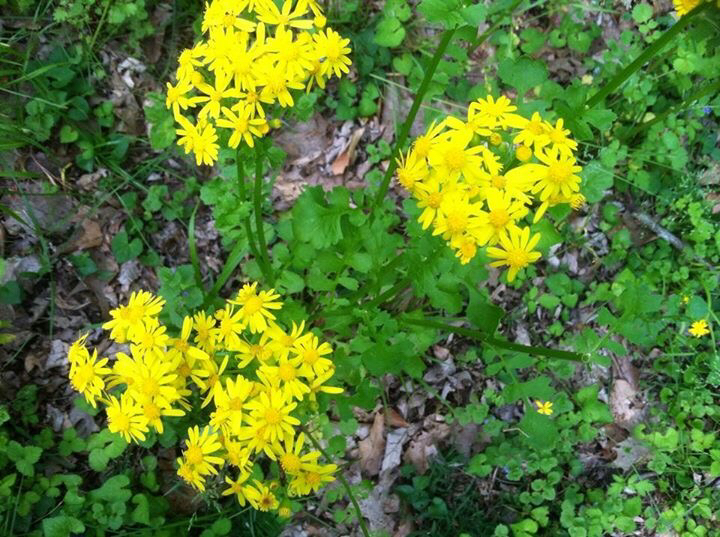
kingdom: Plantae
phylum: Tracheophyta
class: Magnoliopsida
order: Asterales
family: Asteraceae
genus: Packera
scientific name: Packera glabella
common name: Butterweed
